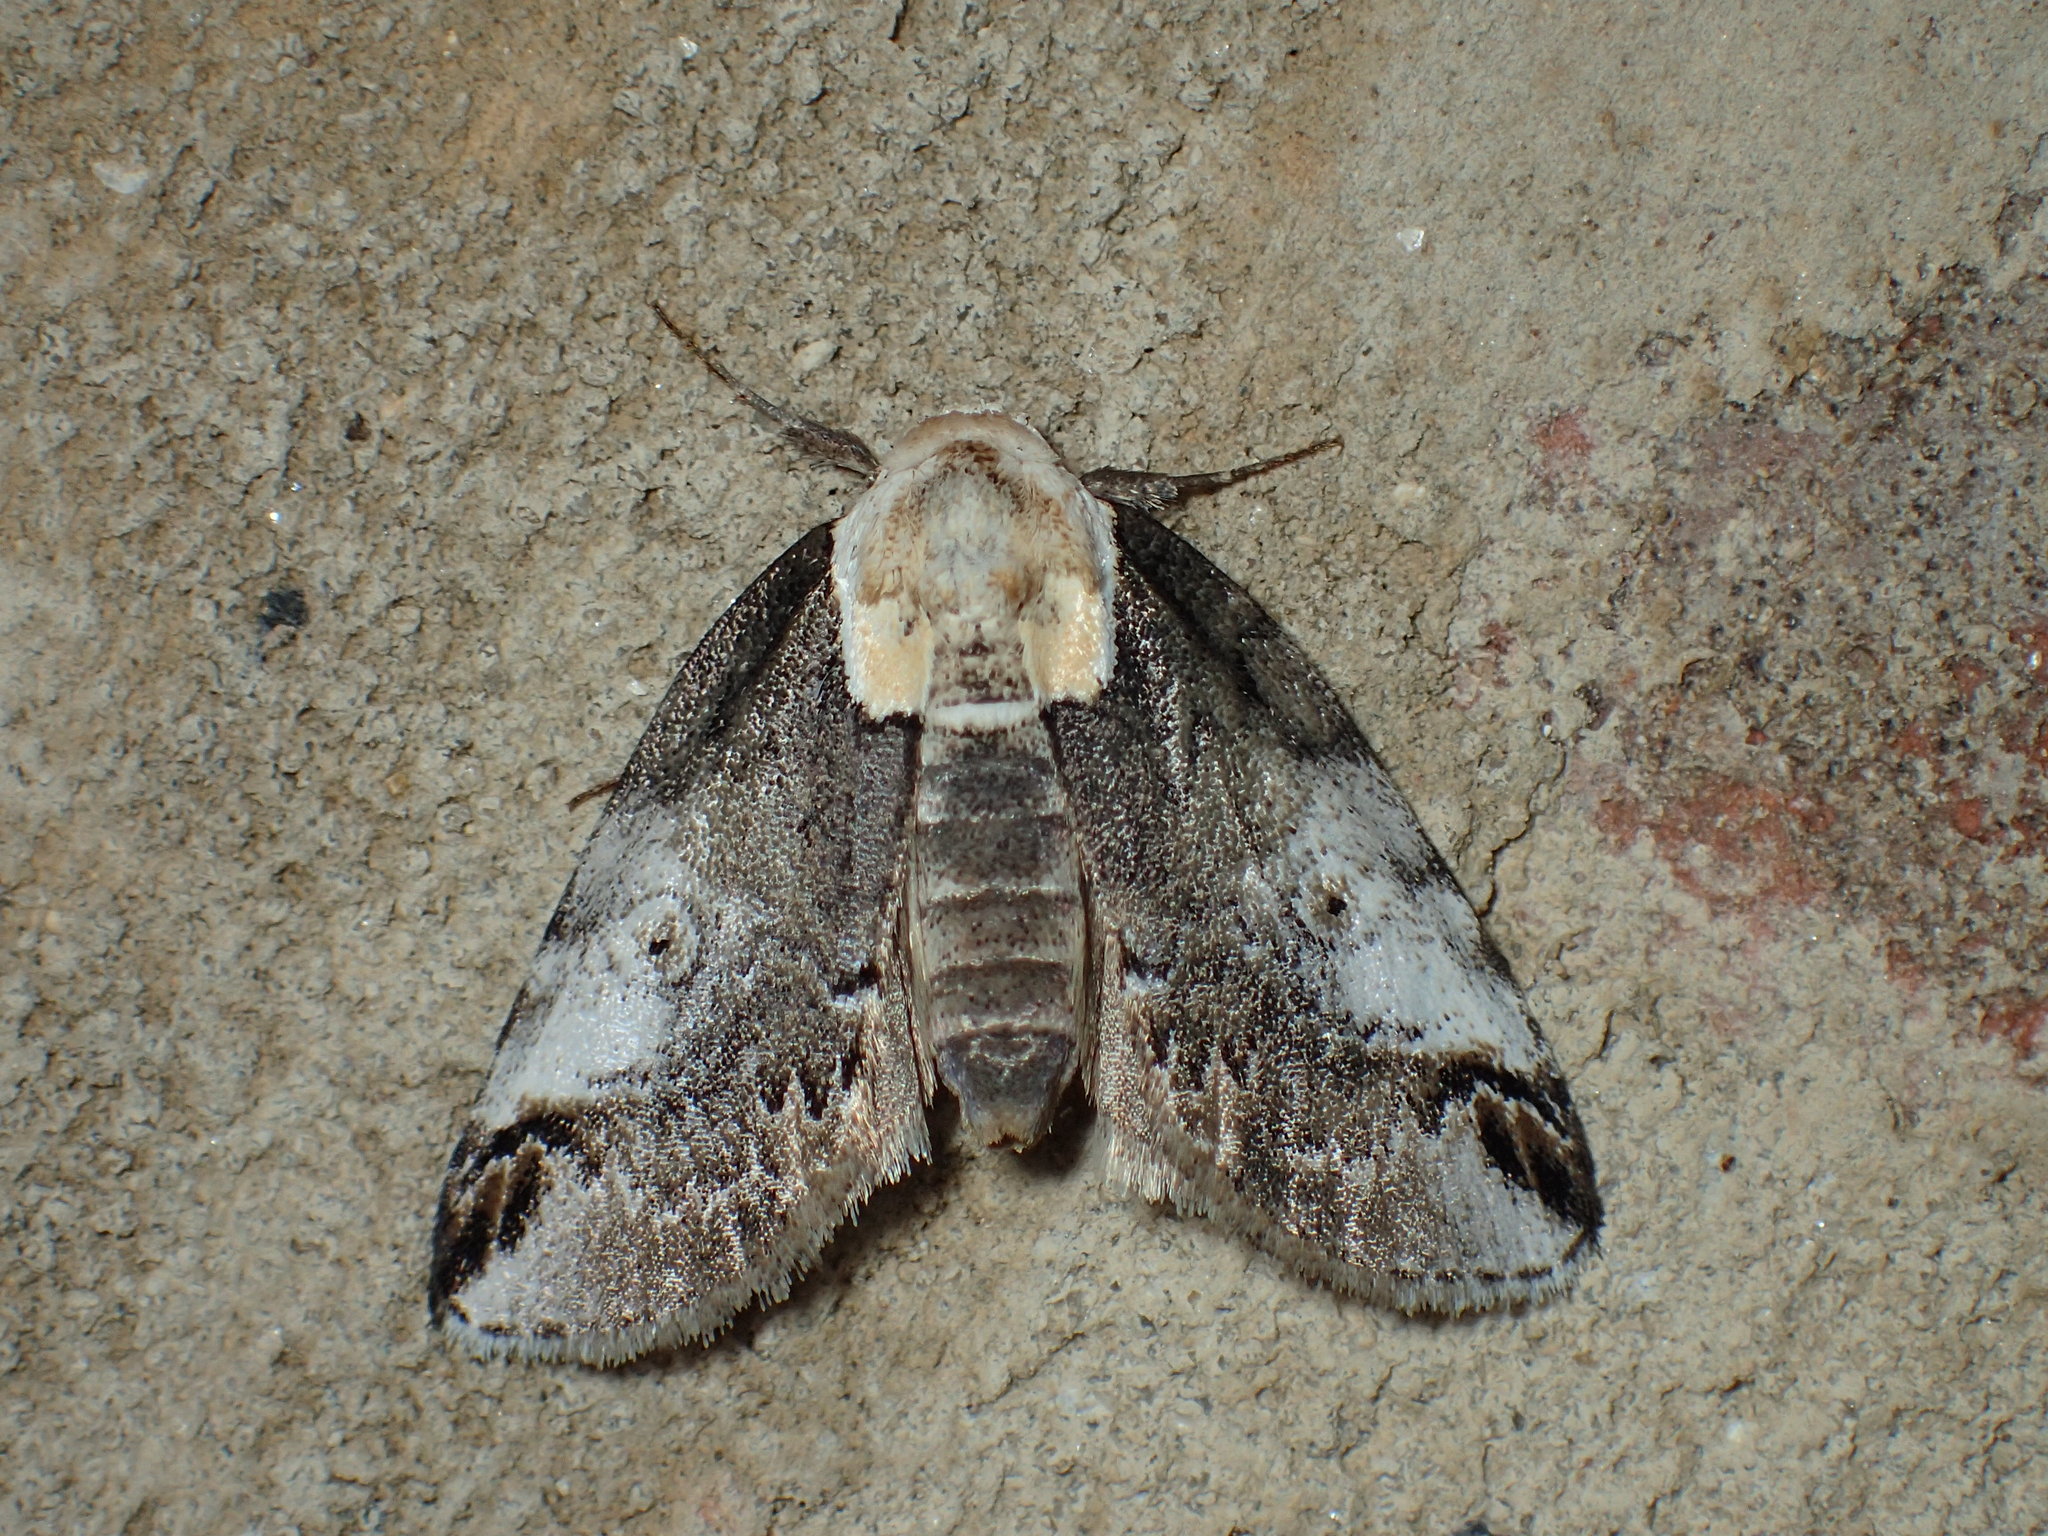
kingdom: Animalia
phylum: Arthropoda
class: Insecta
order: Lepidoptera
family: Nolidae
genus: Baileya
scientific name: Baileya ophthalmica
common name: Eyed baileya moth
